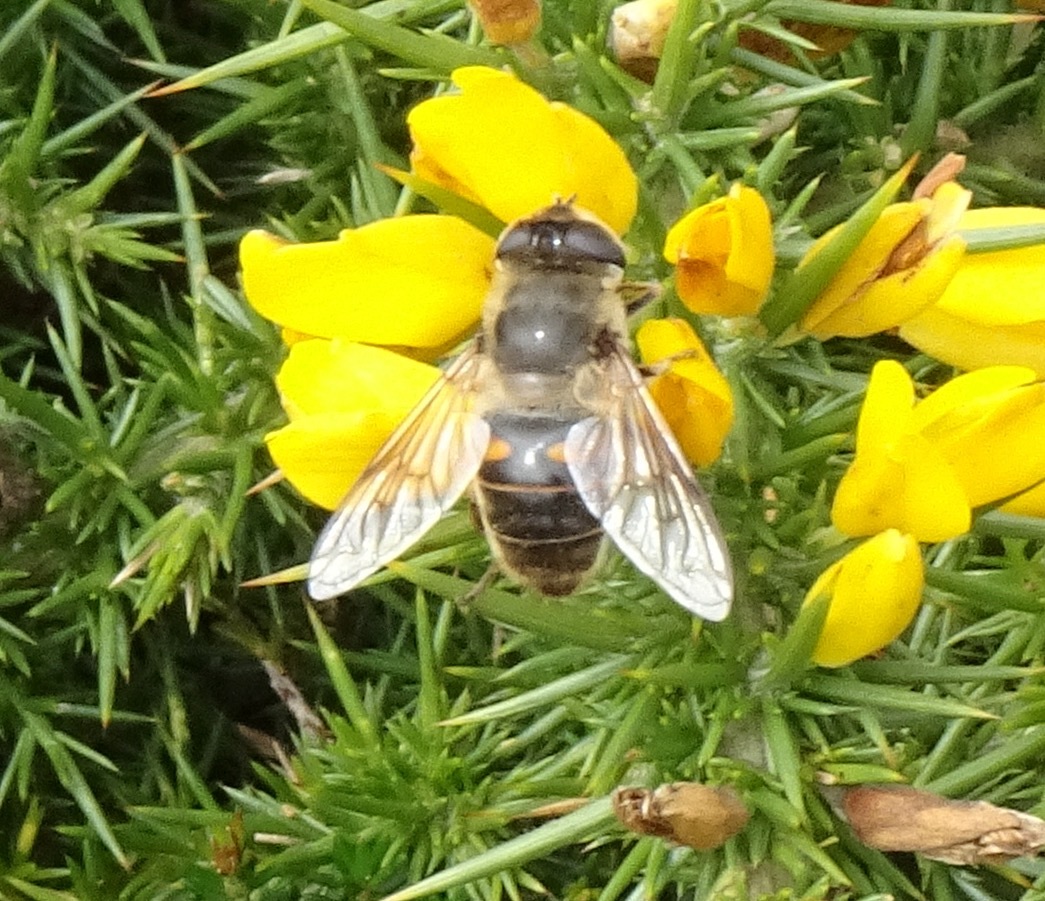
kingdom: Animalia
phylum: Arthropoda
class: Insecta
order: Diptera
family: Syrphidae
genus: Eristalis
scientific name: Eristalis tenax
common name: Drone fly
